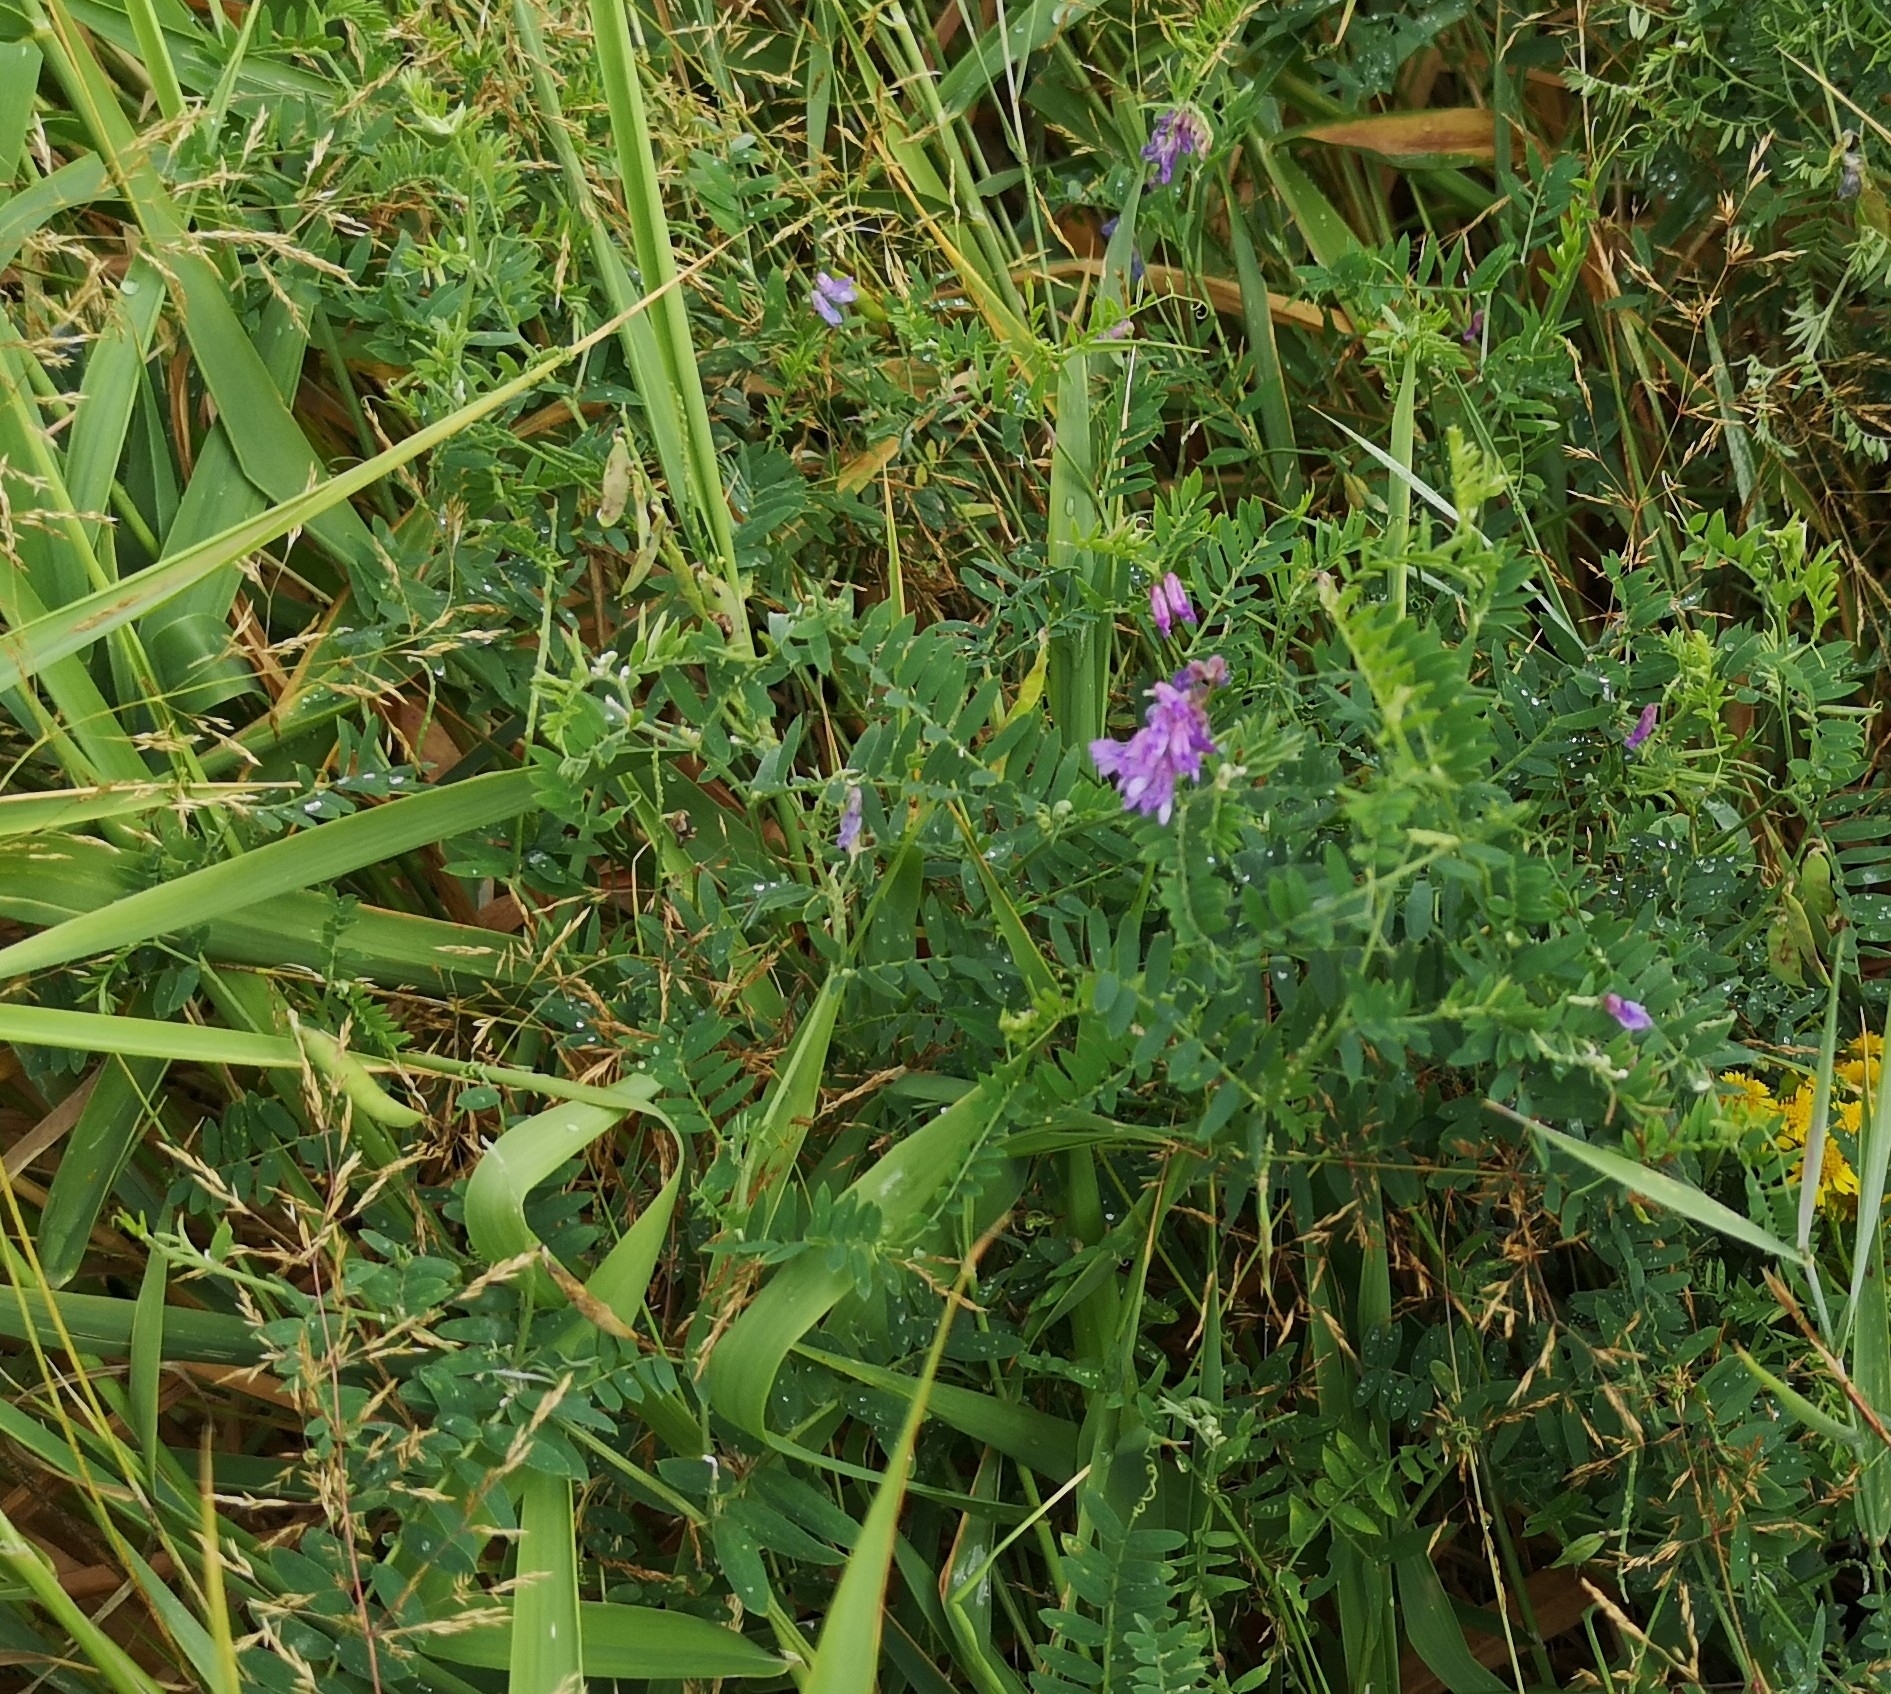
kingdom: Plantae
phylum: Tracheophyta
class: Magnoliopsida
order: Fabales
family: Fabaceae
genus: Vicia
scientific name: Vicia cracca
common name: Bird vetch
